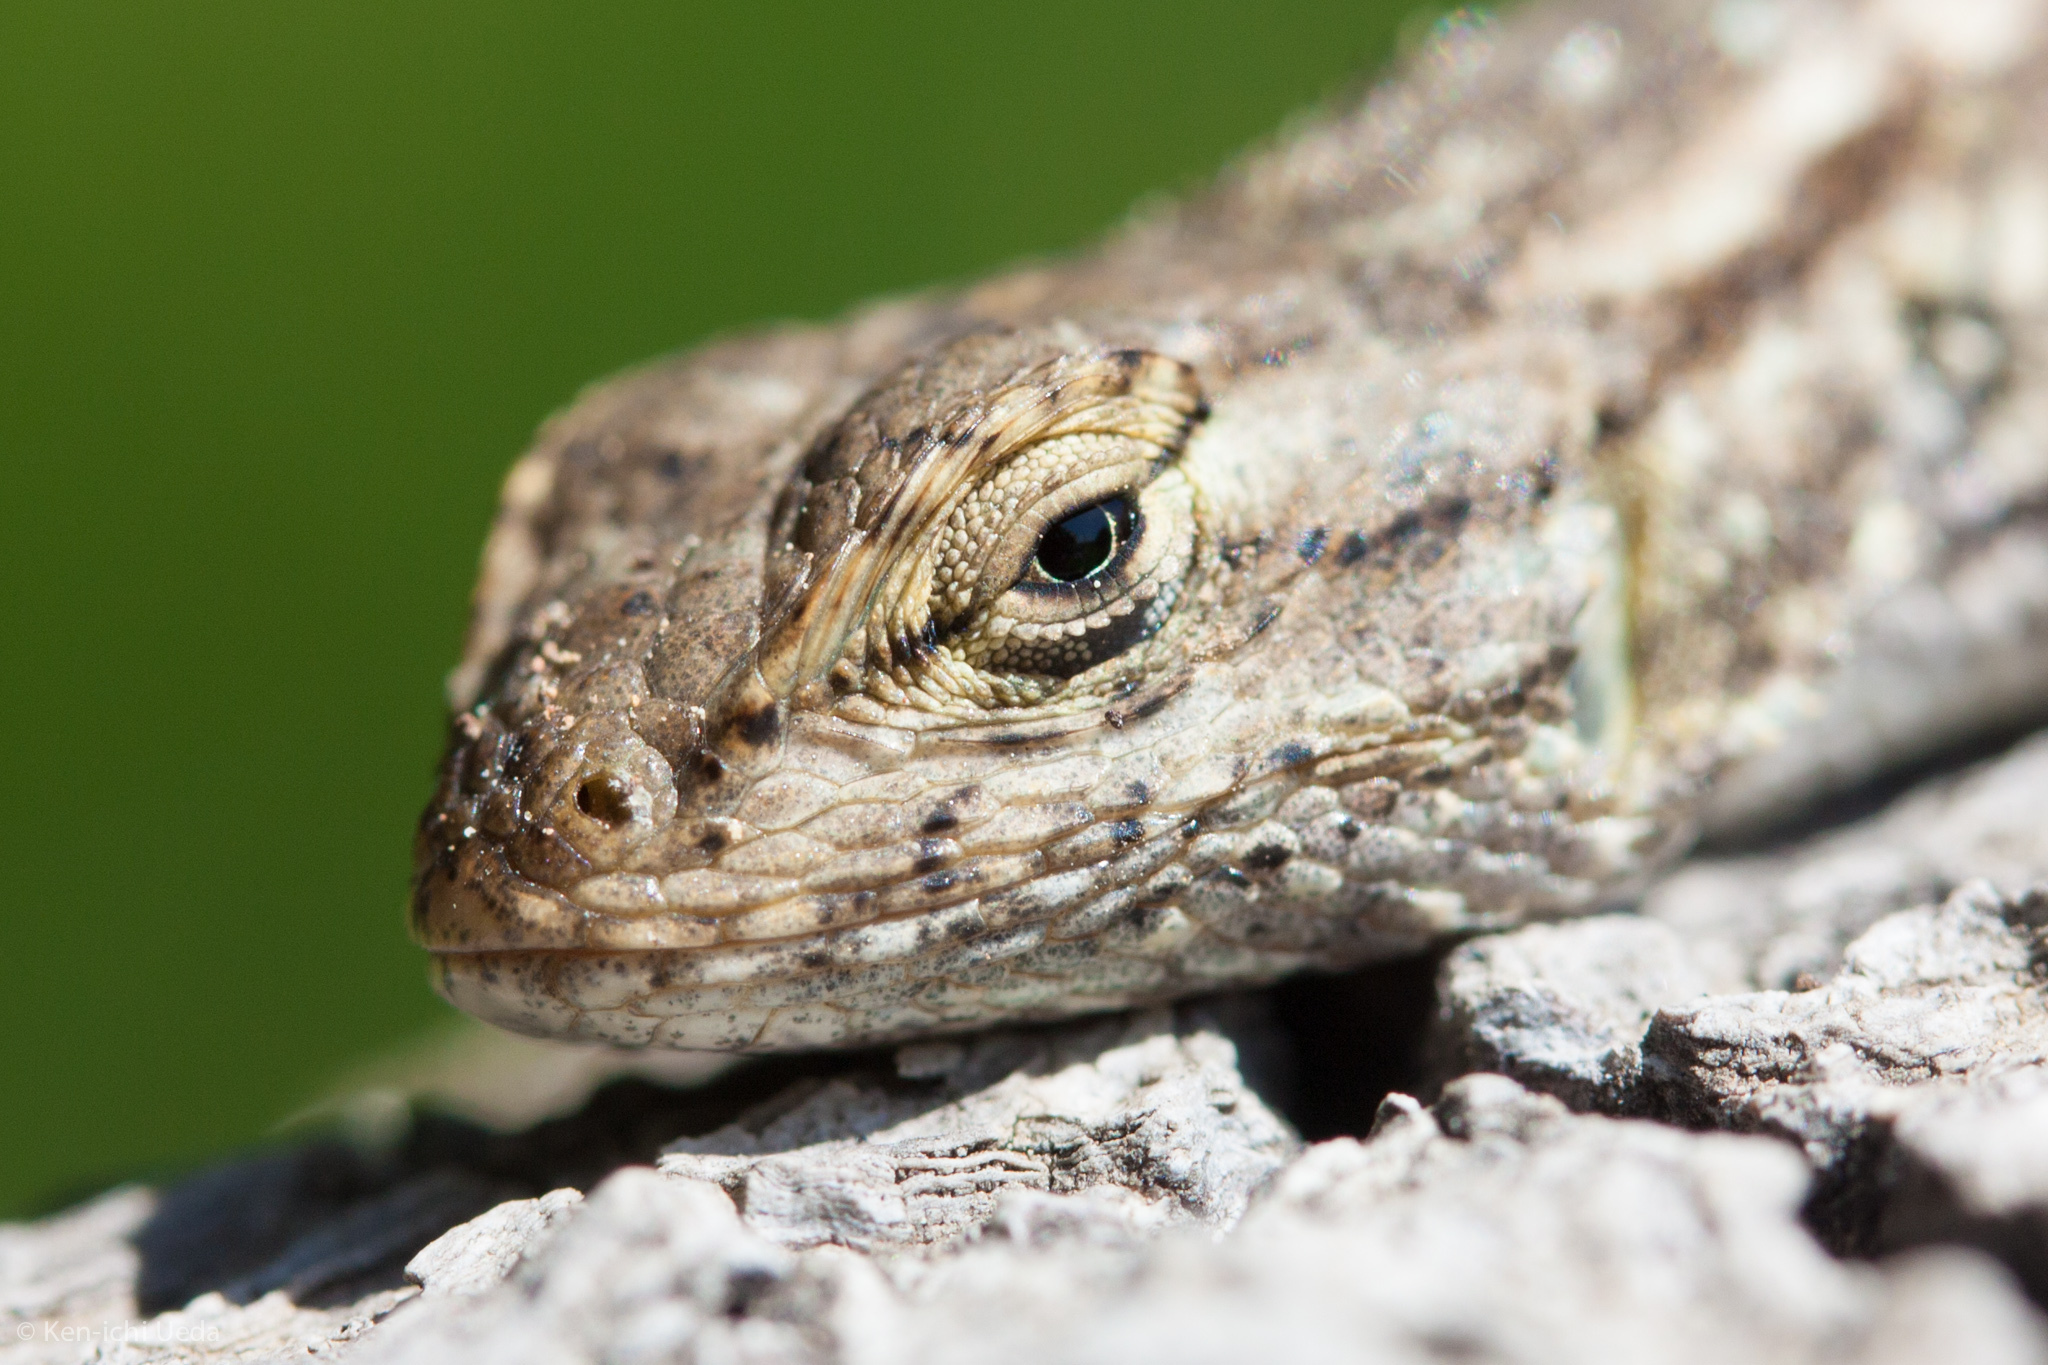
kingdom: Animalia
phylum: Chordata
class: Squamata
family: Phrynosomatidae
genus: Sceloporus
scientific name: Sceloporus occidentalis
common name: Western fence lizard
